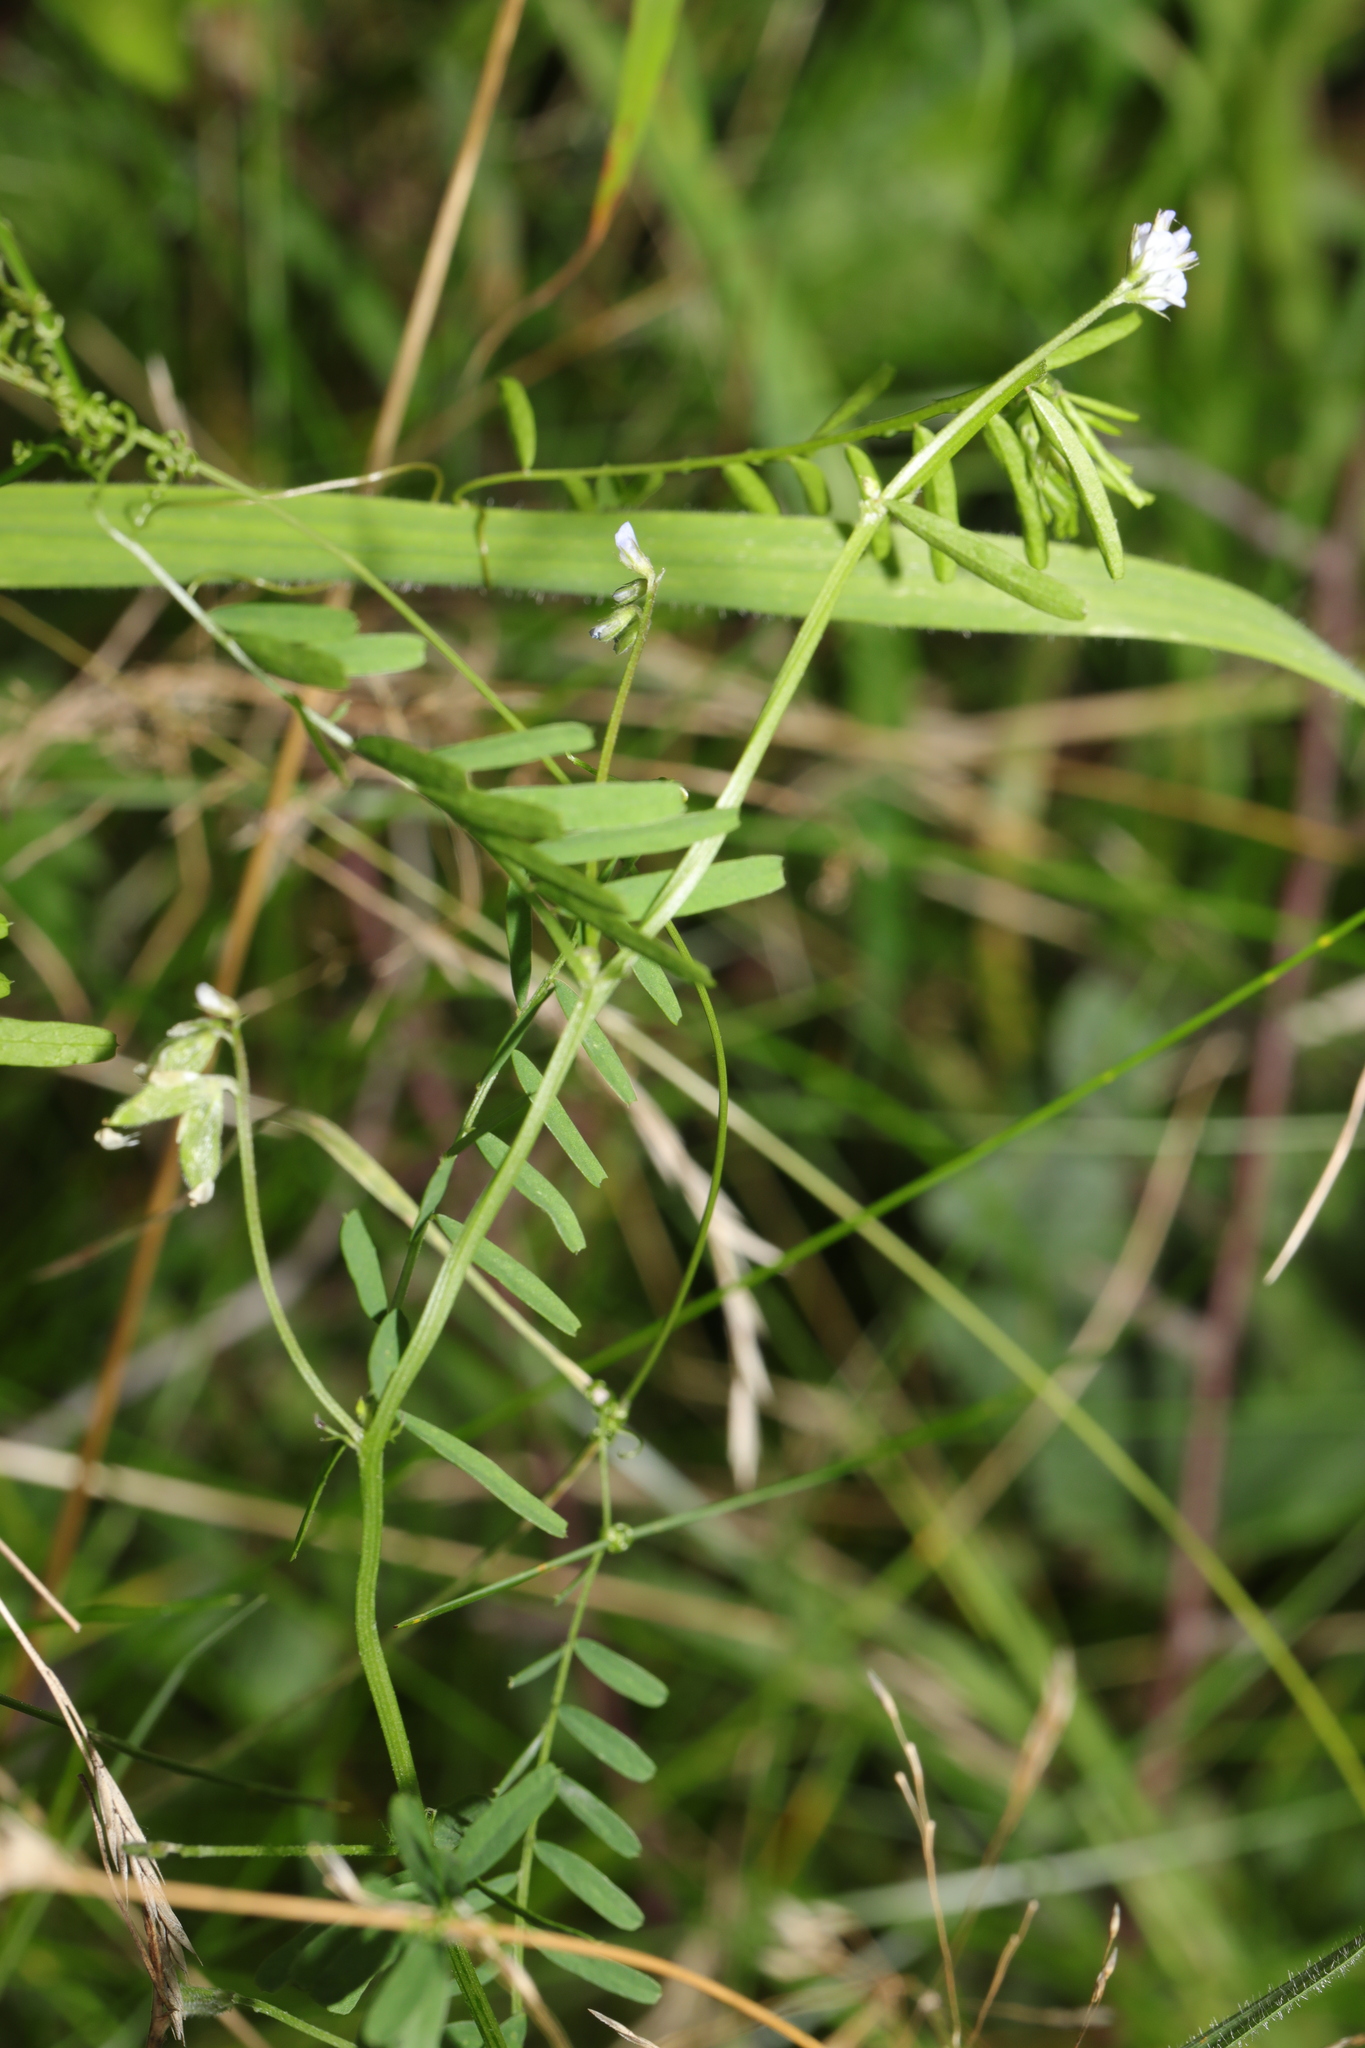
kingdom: Plantae
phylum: Tracheophyta
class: Magnoliopsida
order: Fabales
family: Fabaceae
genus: Vicia
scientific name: Vicia hirsuta
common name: Tiny vetch
